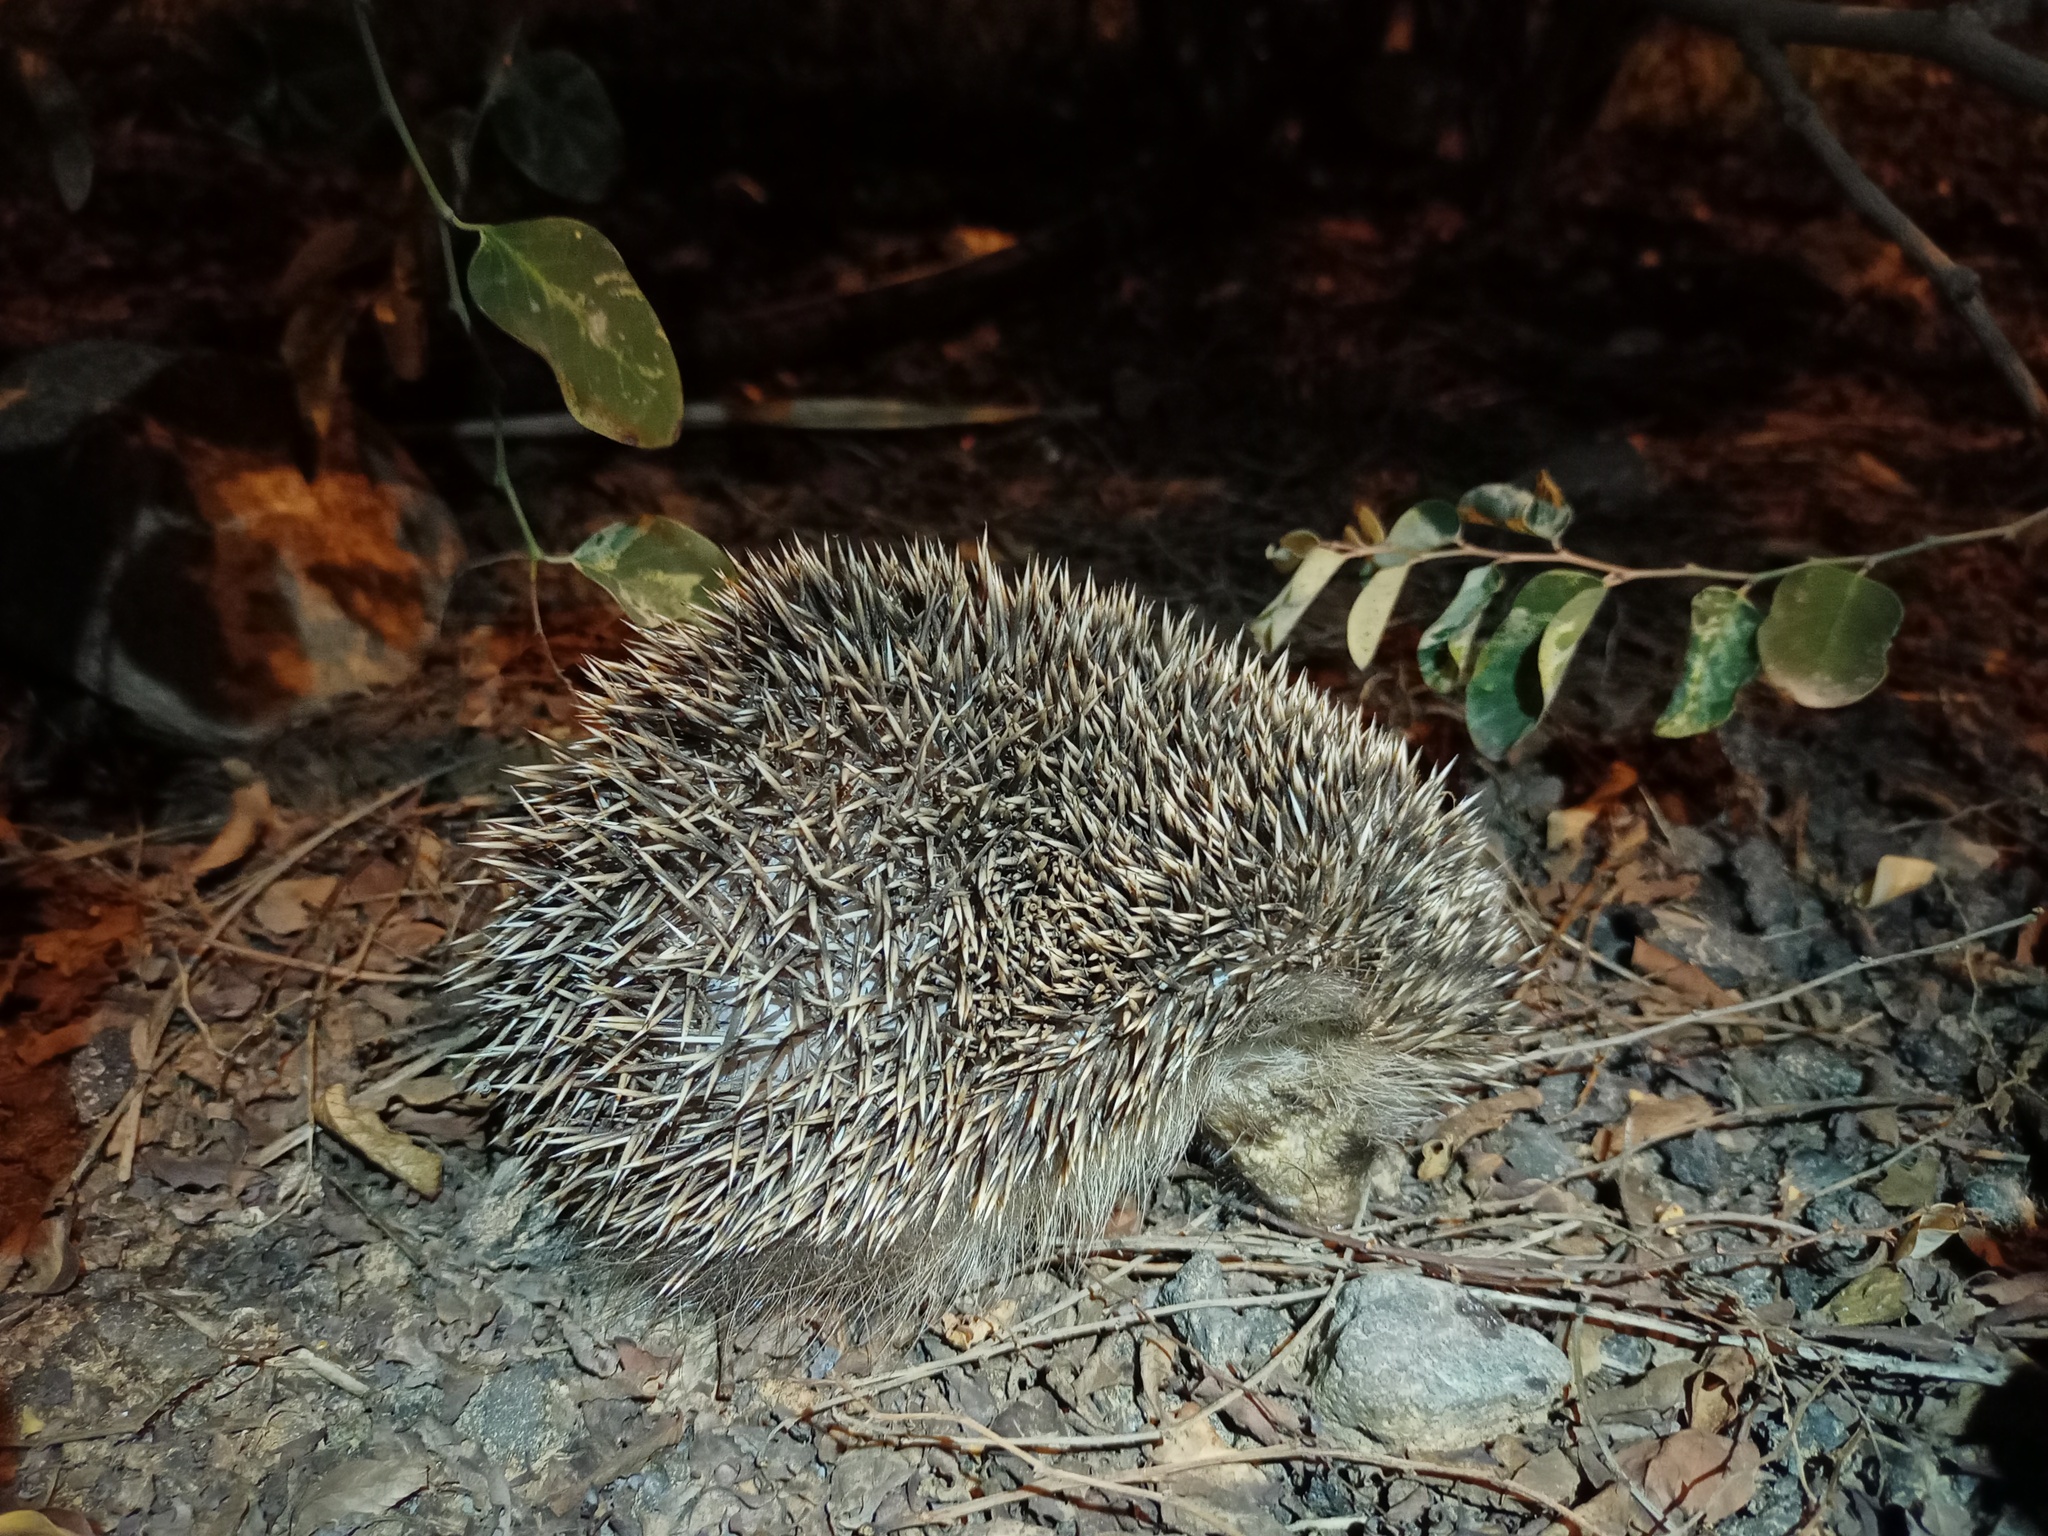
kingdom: Animalia
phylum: Chordata
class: Mammalia
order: Erinaceomorpha
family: Erinaceidae
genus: Atelerix
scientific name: Atelerix algirus
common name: North african hedgehog
